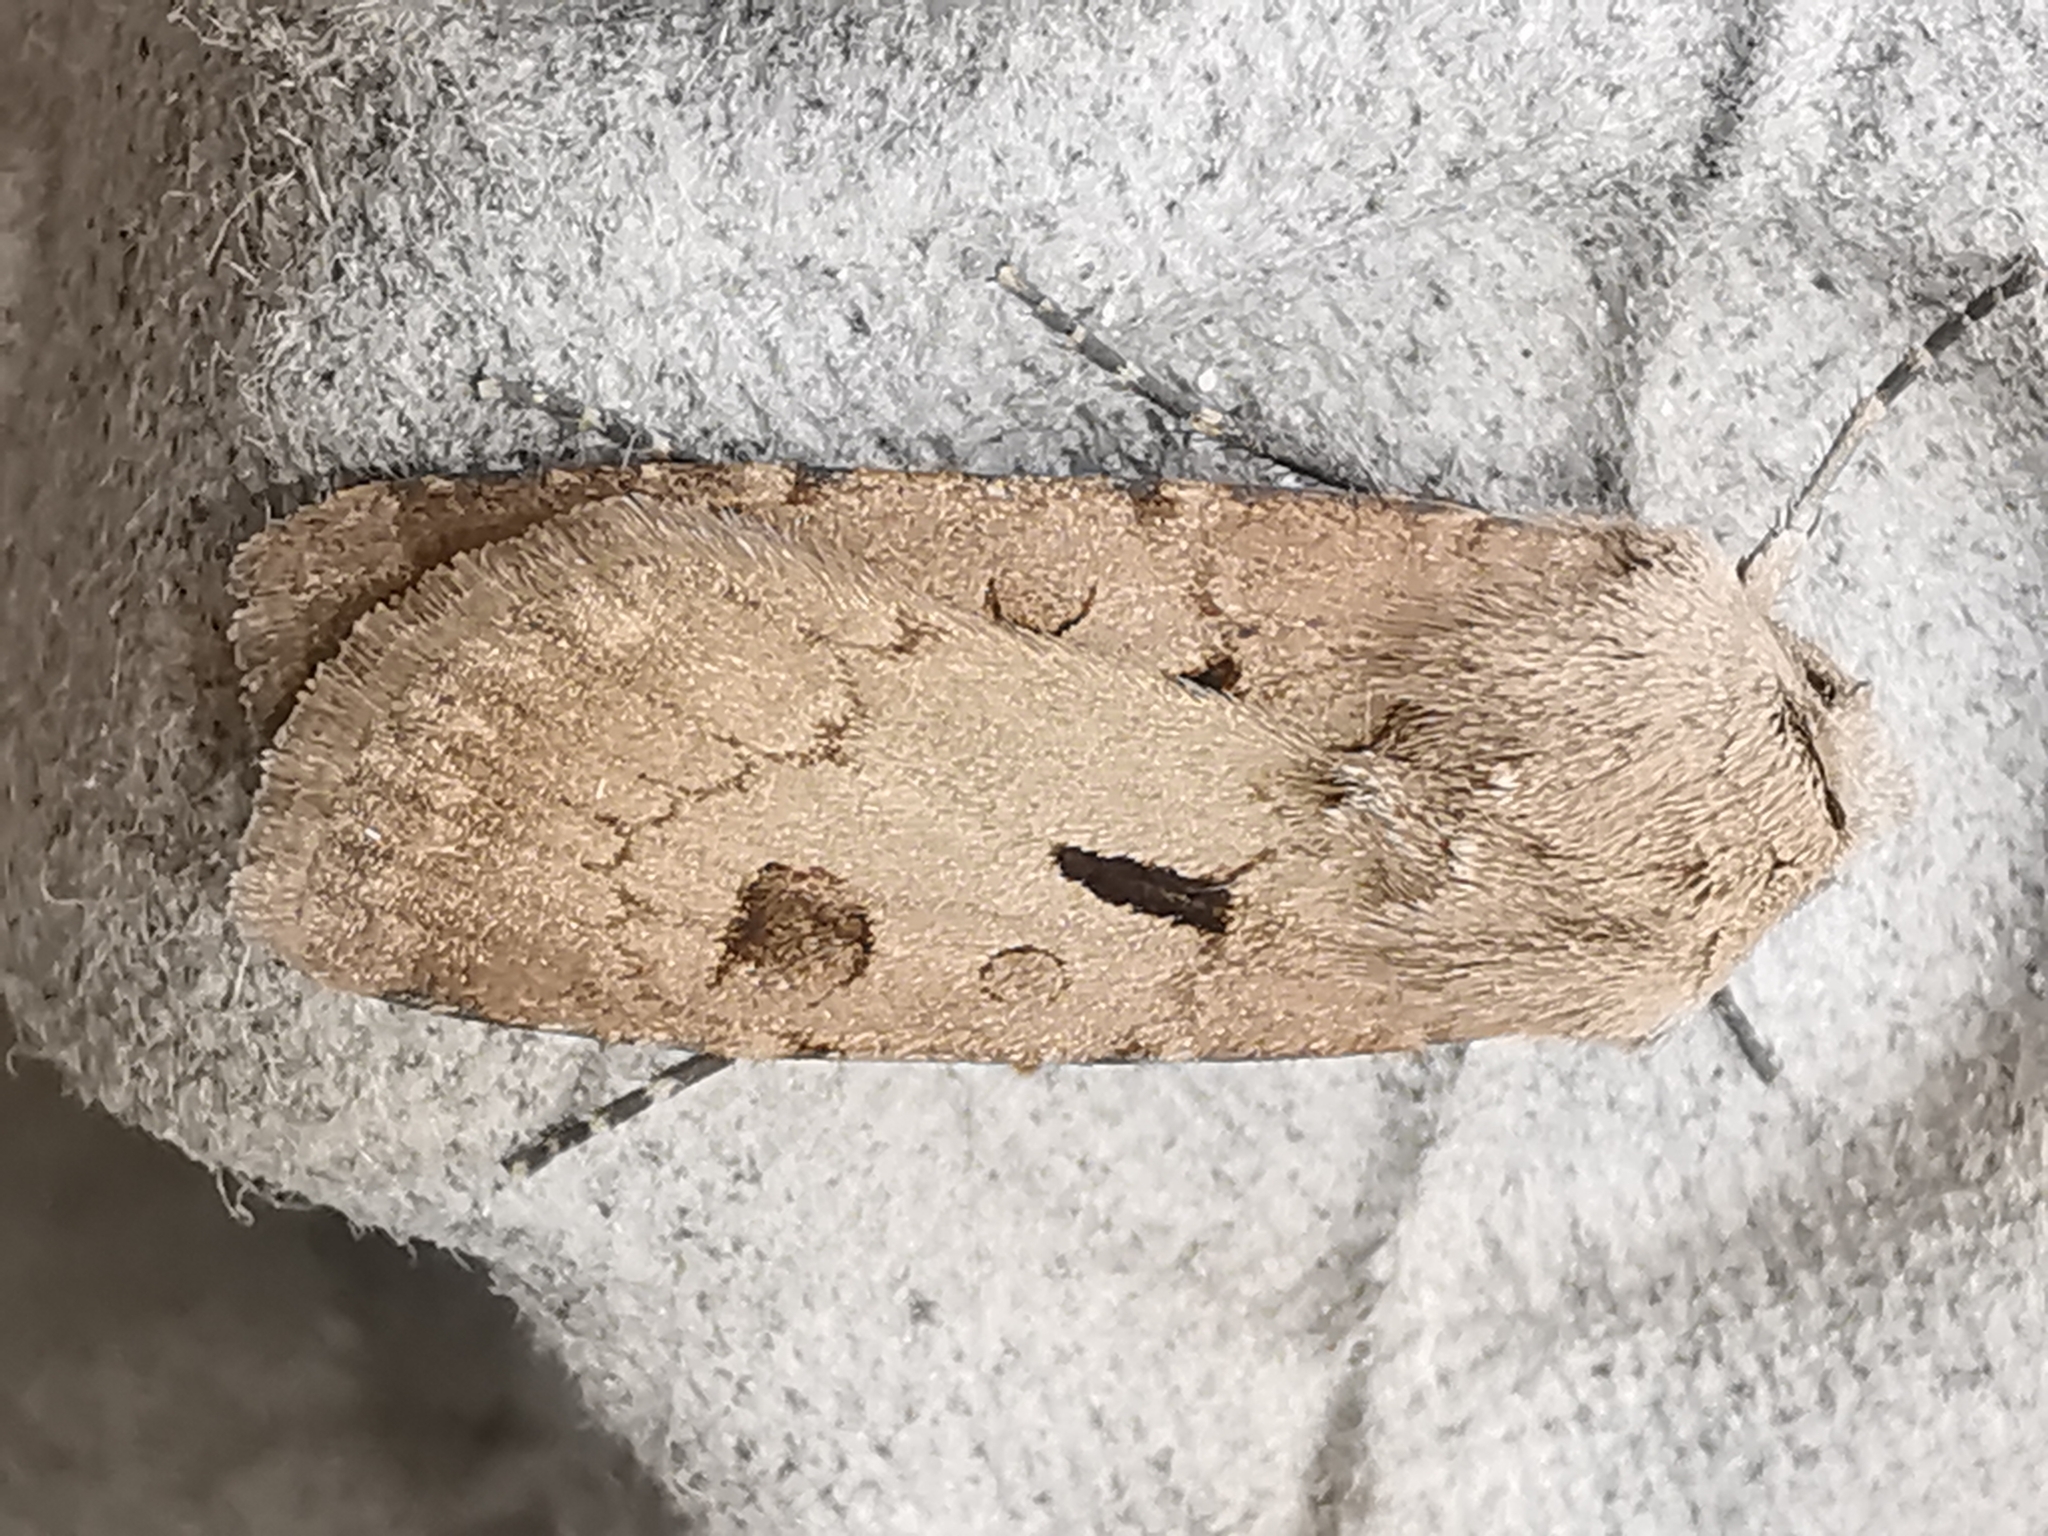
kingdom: Animalia
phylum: Arthropoda
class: Insecta
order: Lepidoptera
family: Noctuidae
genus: Agrotis
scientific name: Agrotis exclamationis
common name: Heart and dart
